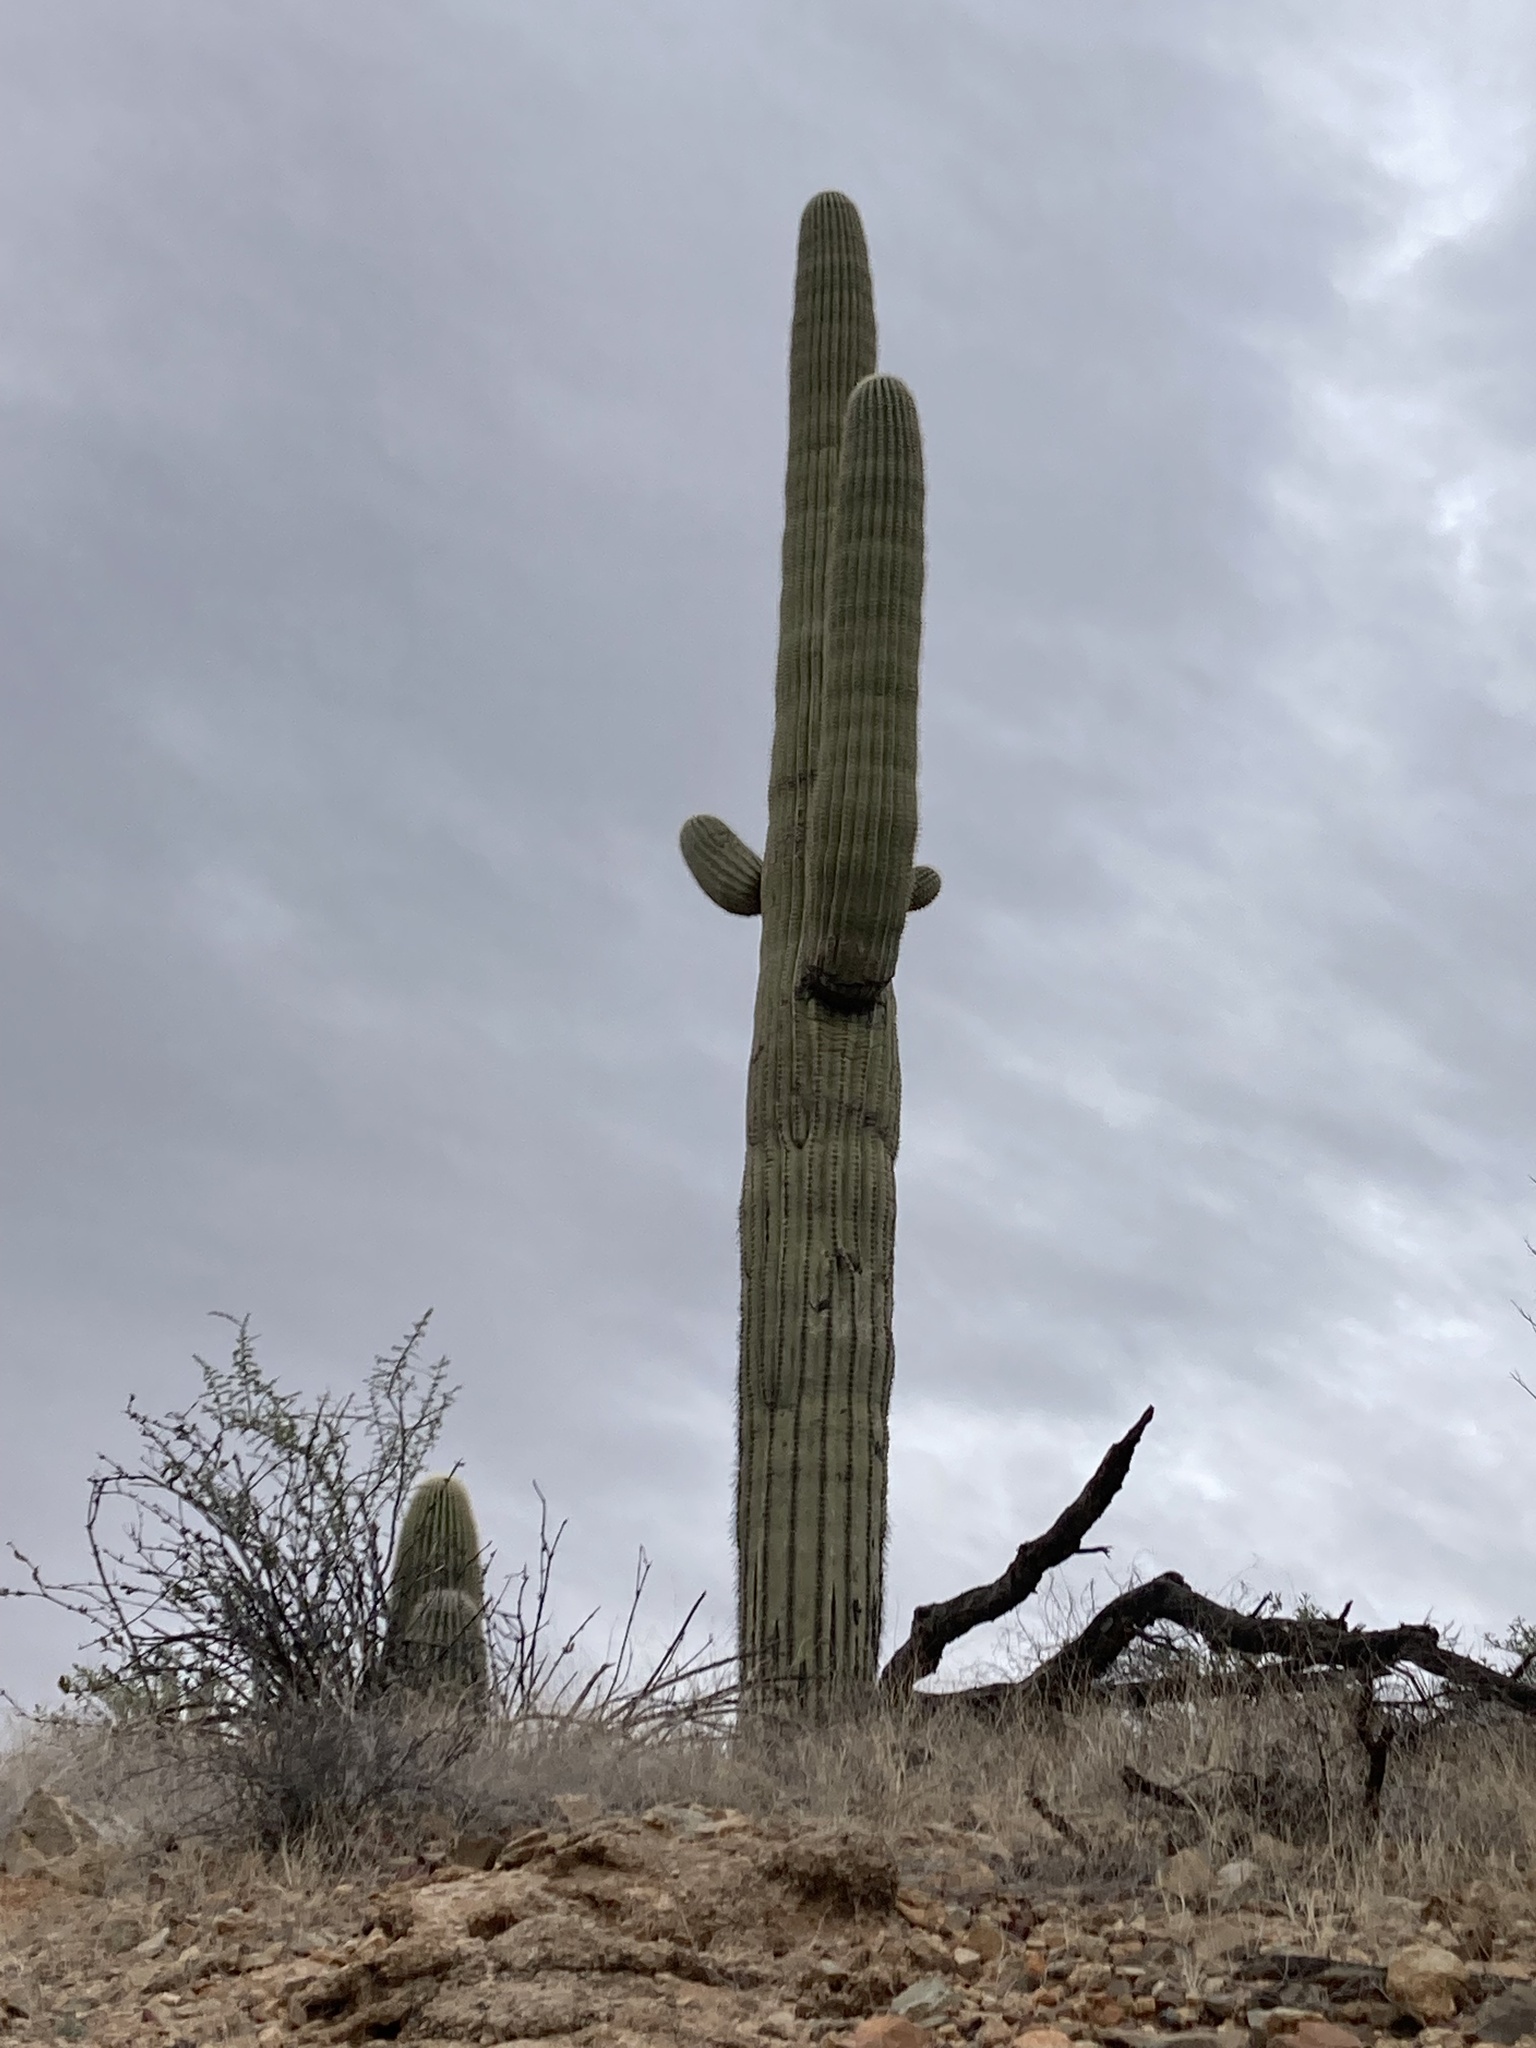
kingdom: Plantae
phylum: Tracheophyta
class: Magnoliopsida
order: Caryophyllales
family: Cactaceae
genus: Carnegiea
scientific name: Carnegiea gigantea
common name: Saguaro
